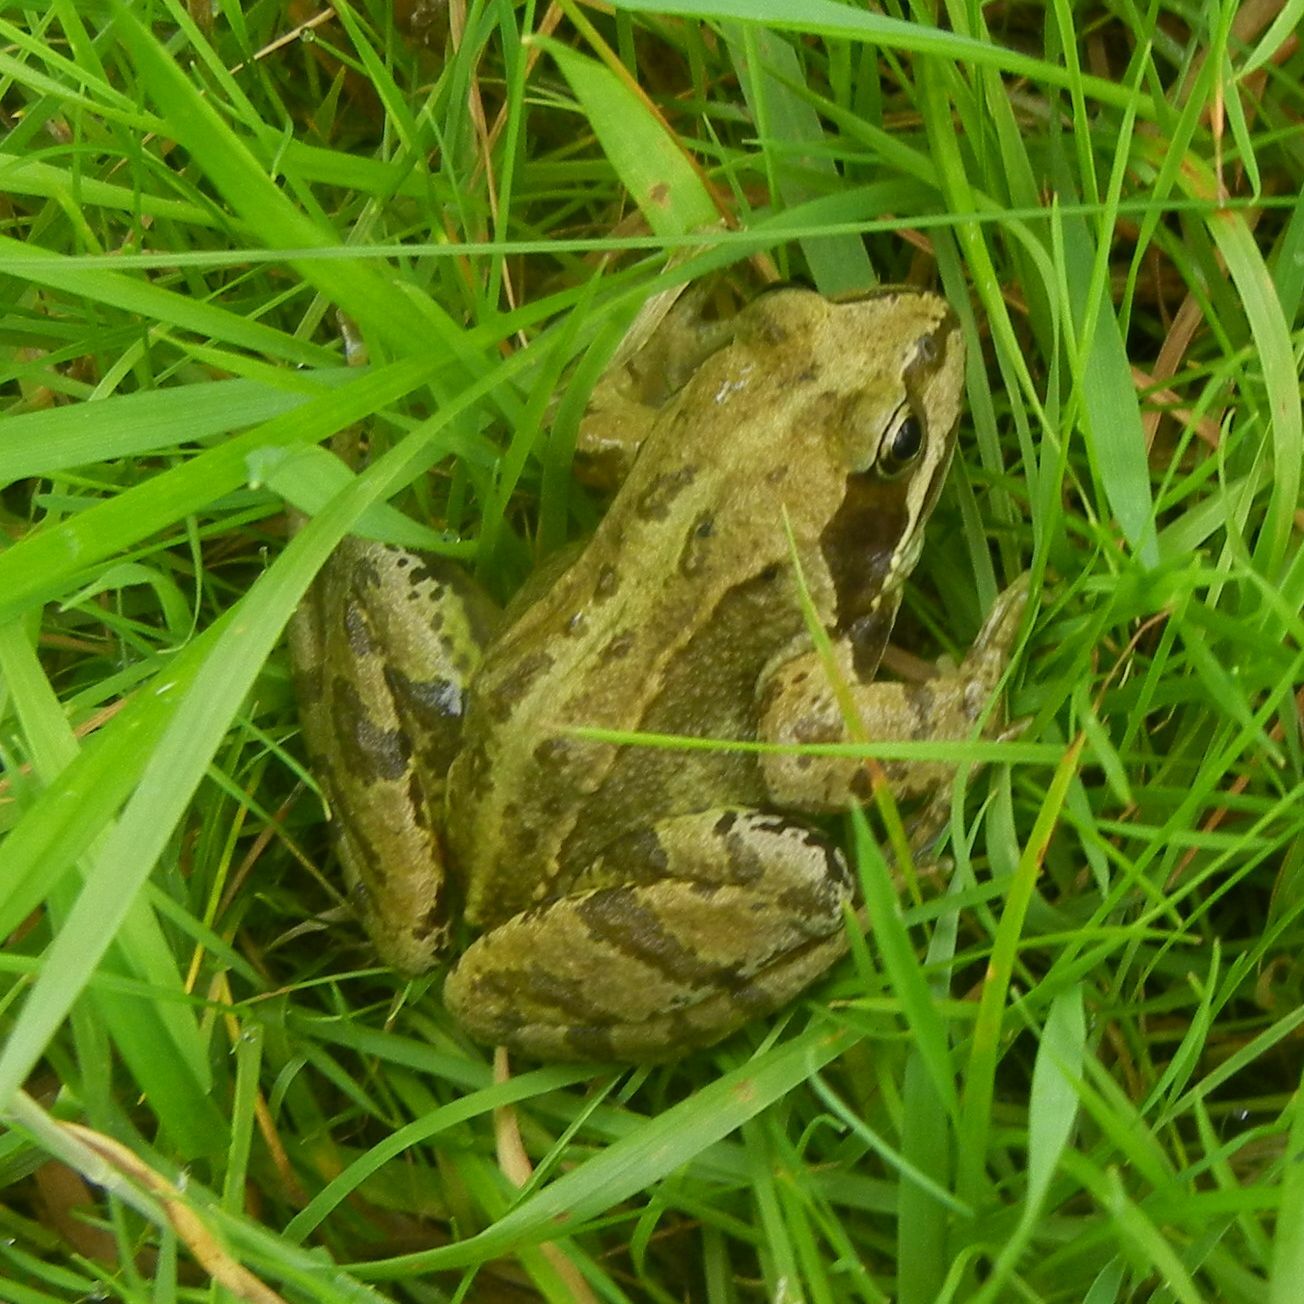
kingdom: Animalia
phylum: Chordata
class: Amphibia
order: Anura
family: Ranidae
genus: Rana
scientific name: Rana temporaria
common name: Common frog
